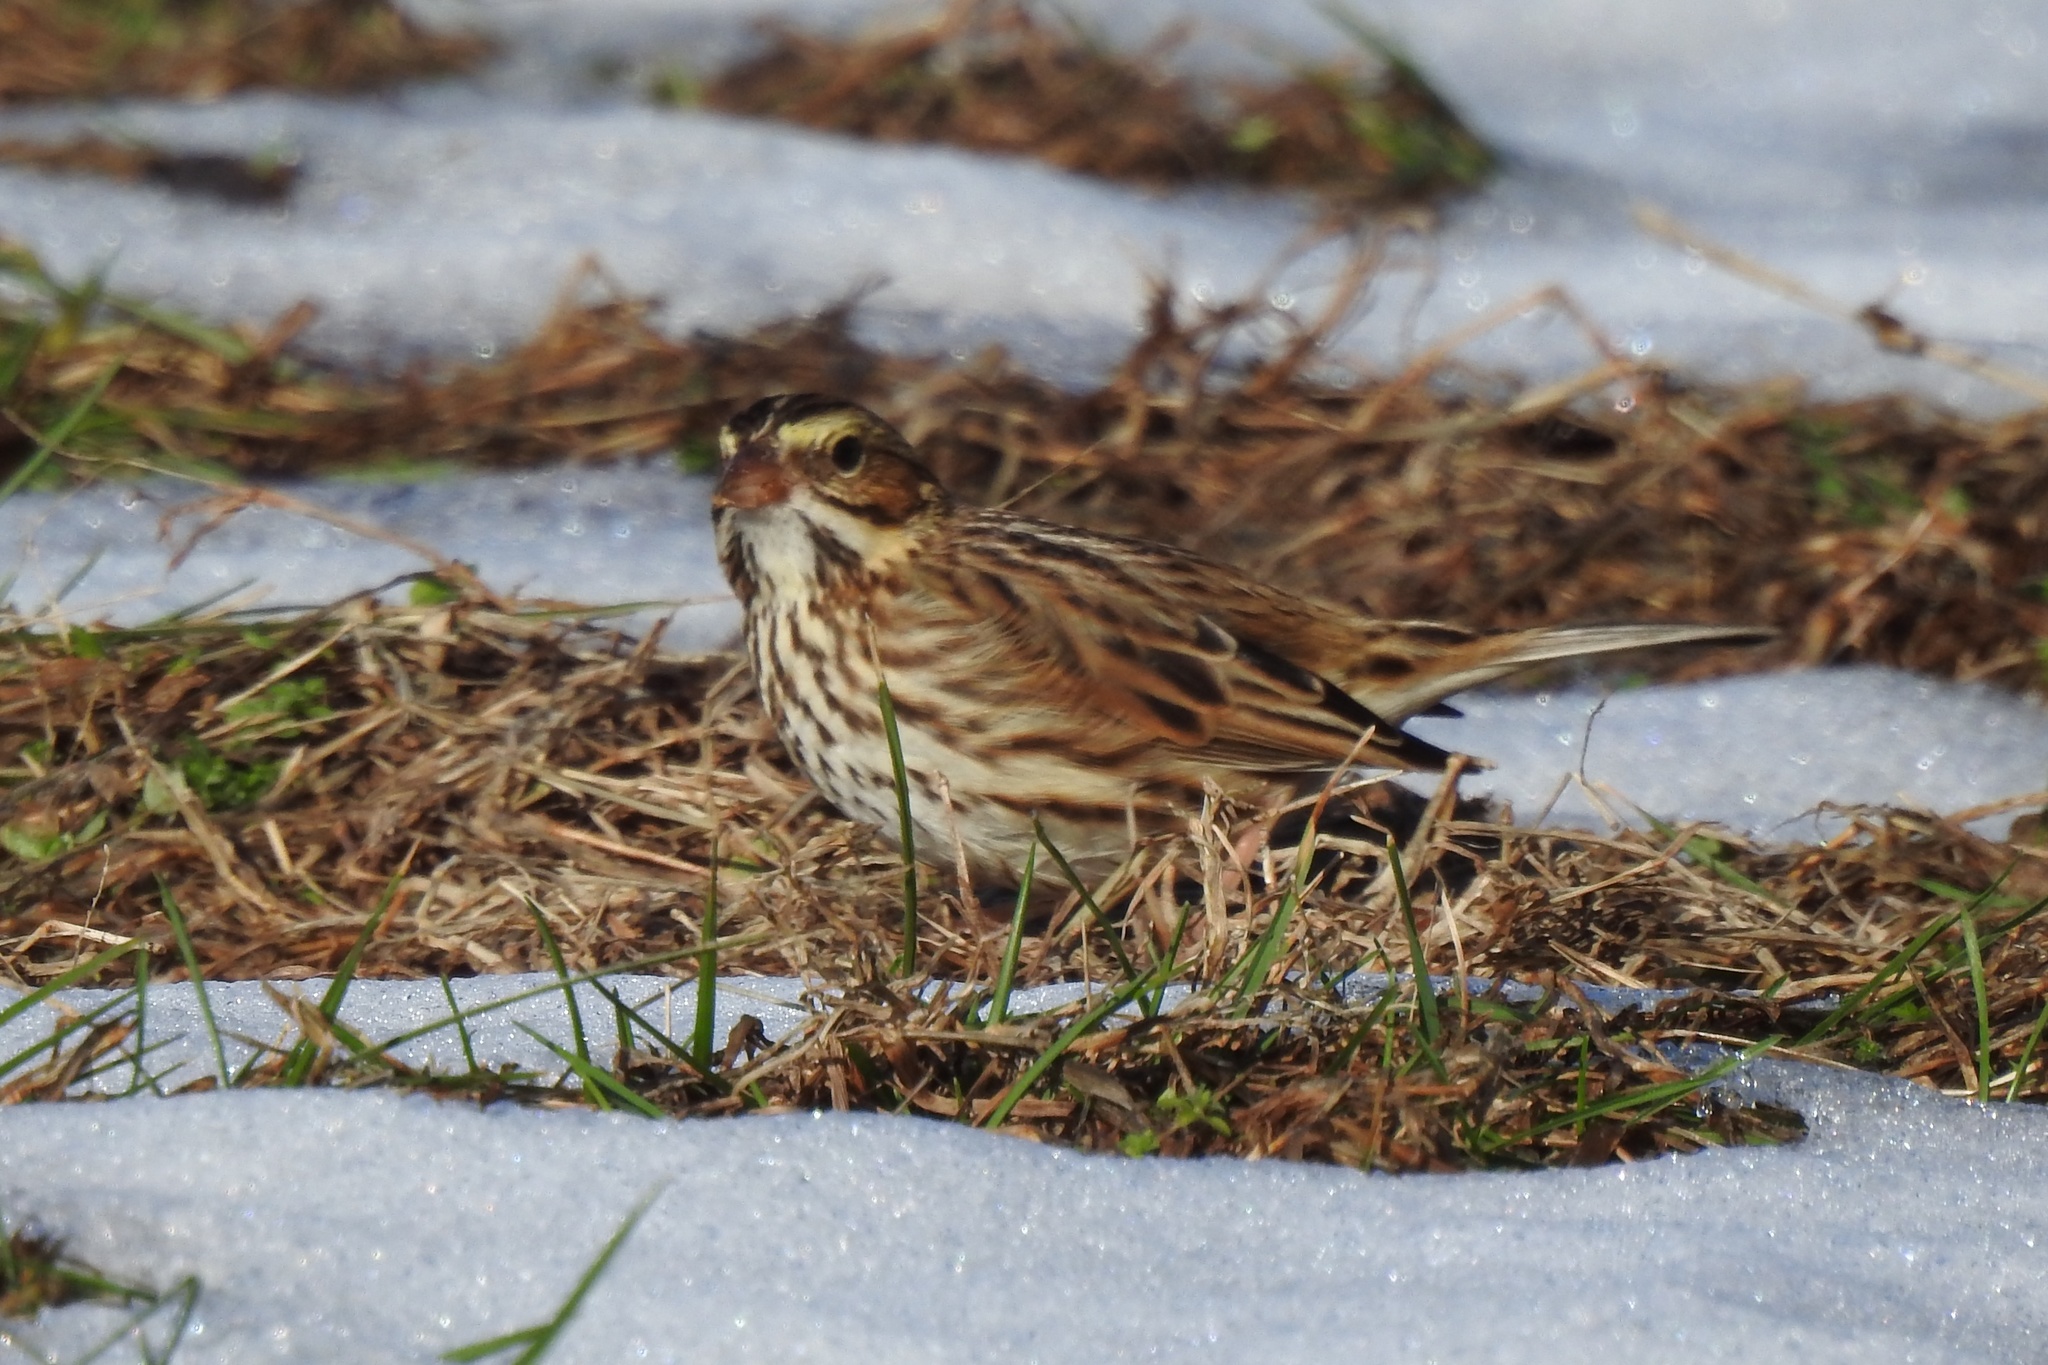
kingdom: Animalia
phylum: Chordata
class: Aves
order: Passeriformes
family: Passerellidae
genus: Passerculus
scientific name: Passerculus sandwichensis
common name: Savannah sparrow
